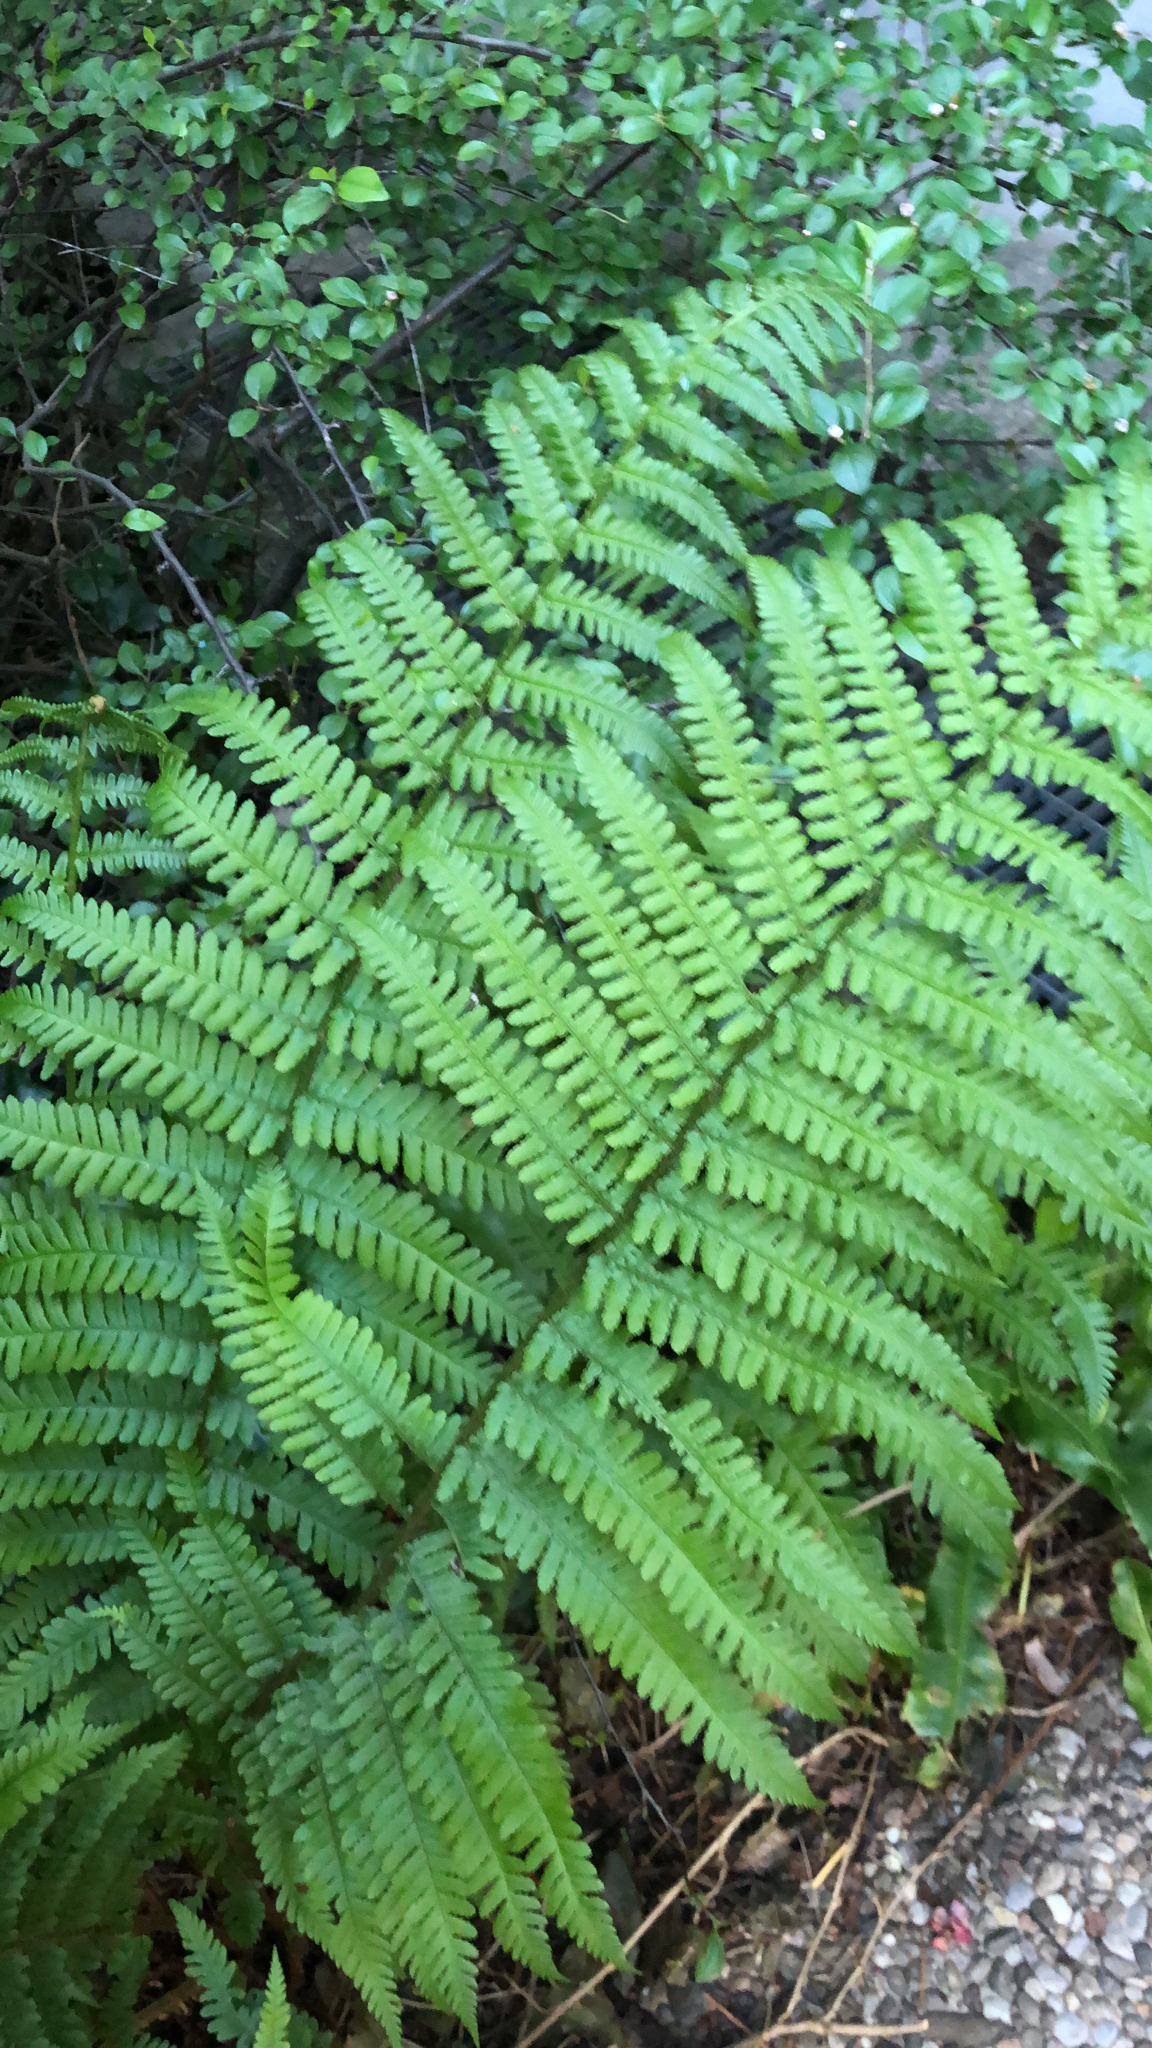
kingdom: Plantae
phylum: Tracheophyta
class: Polypodiopsida
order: Polypodiales
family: Dryopteridaceae
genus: Dryopteris
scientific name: Dryopteris filix-mas
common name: Male fern
